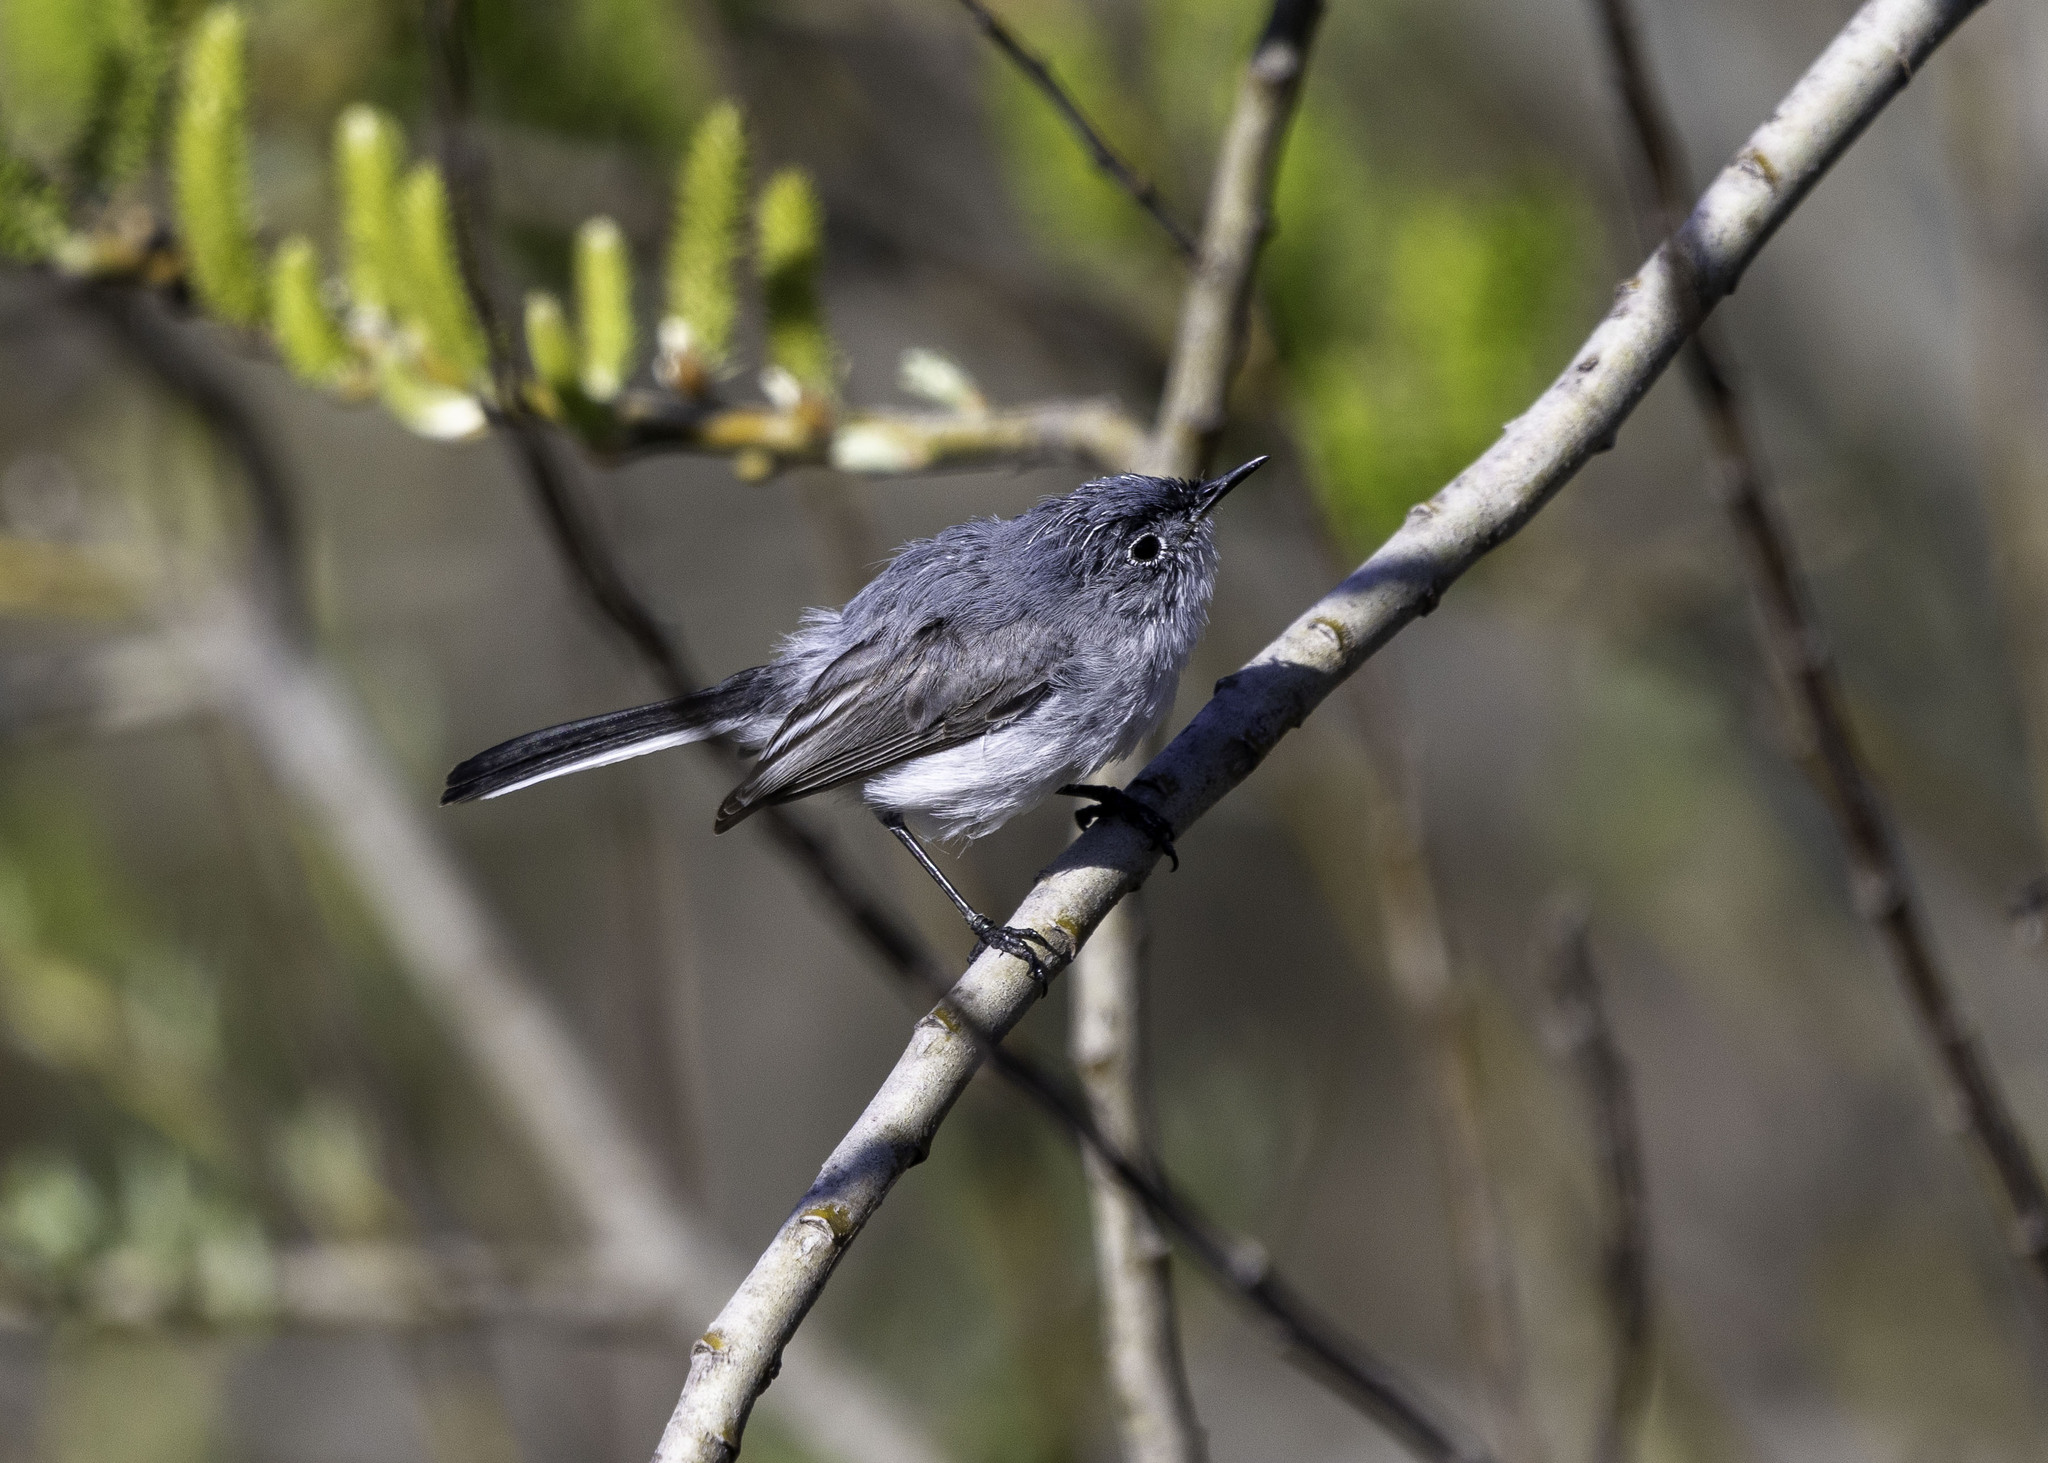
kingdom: Animalia
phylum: Chordata
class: Aves
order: Passeriformes
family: Polioptilidae
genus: Polioptila
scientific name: Polioptila caerulea
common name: Blue-gray gnatcatcher
